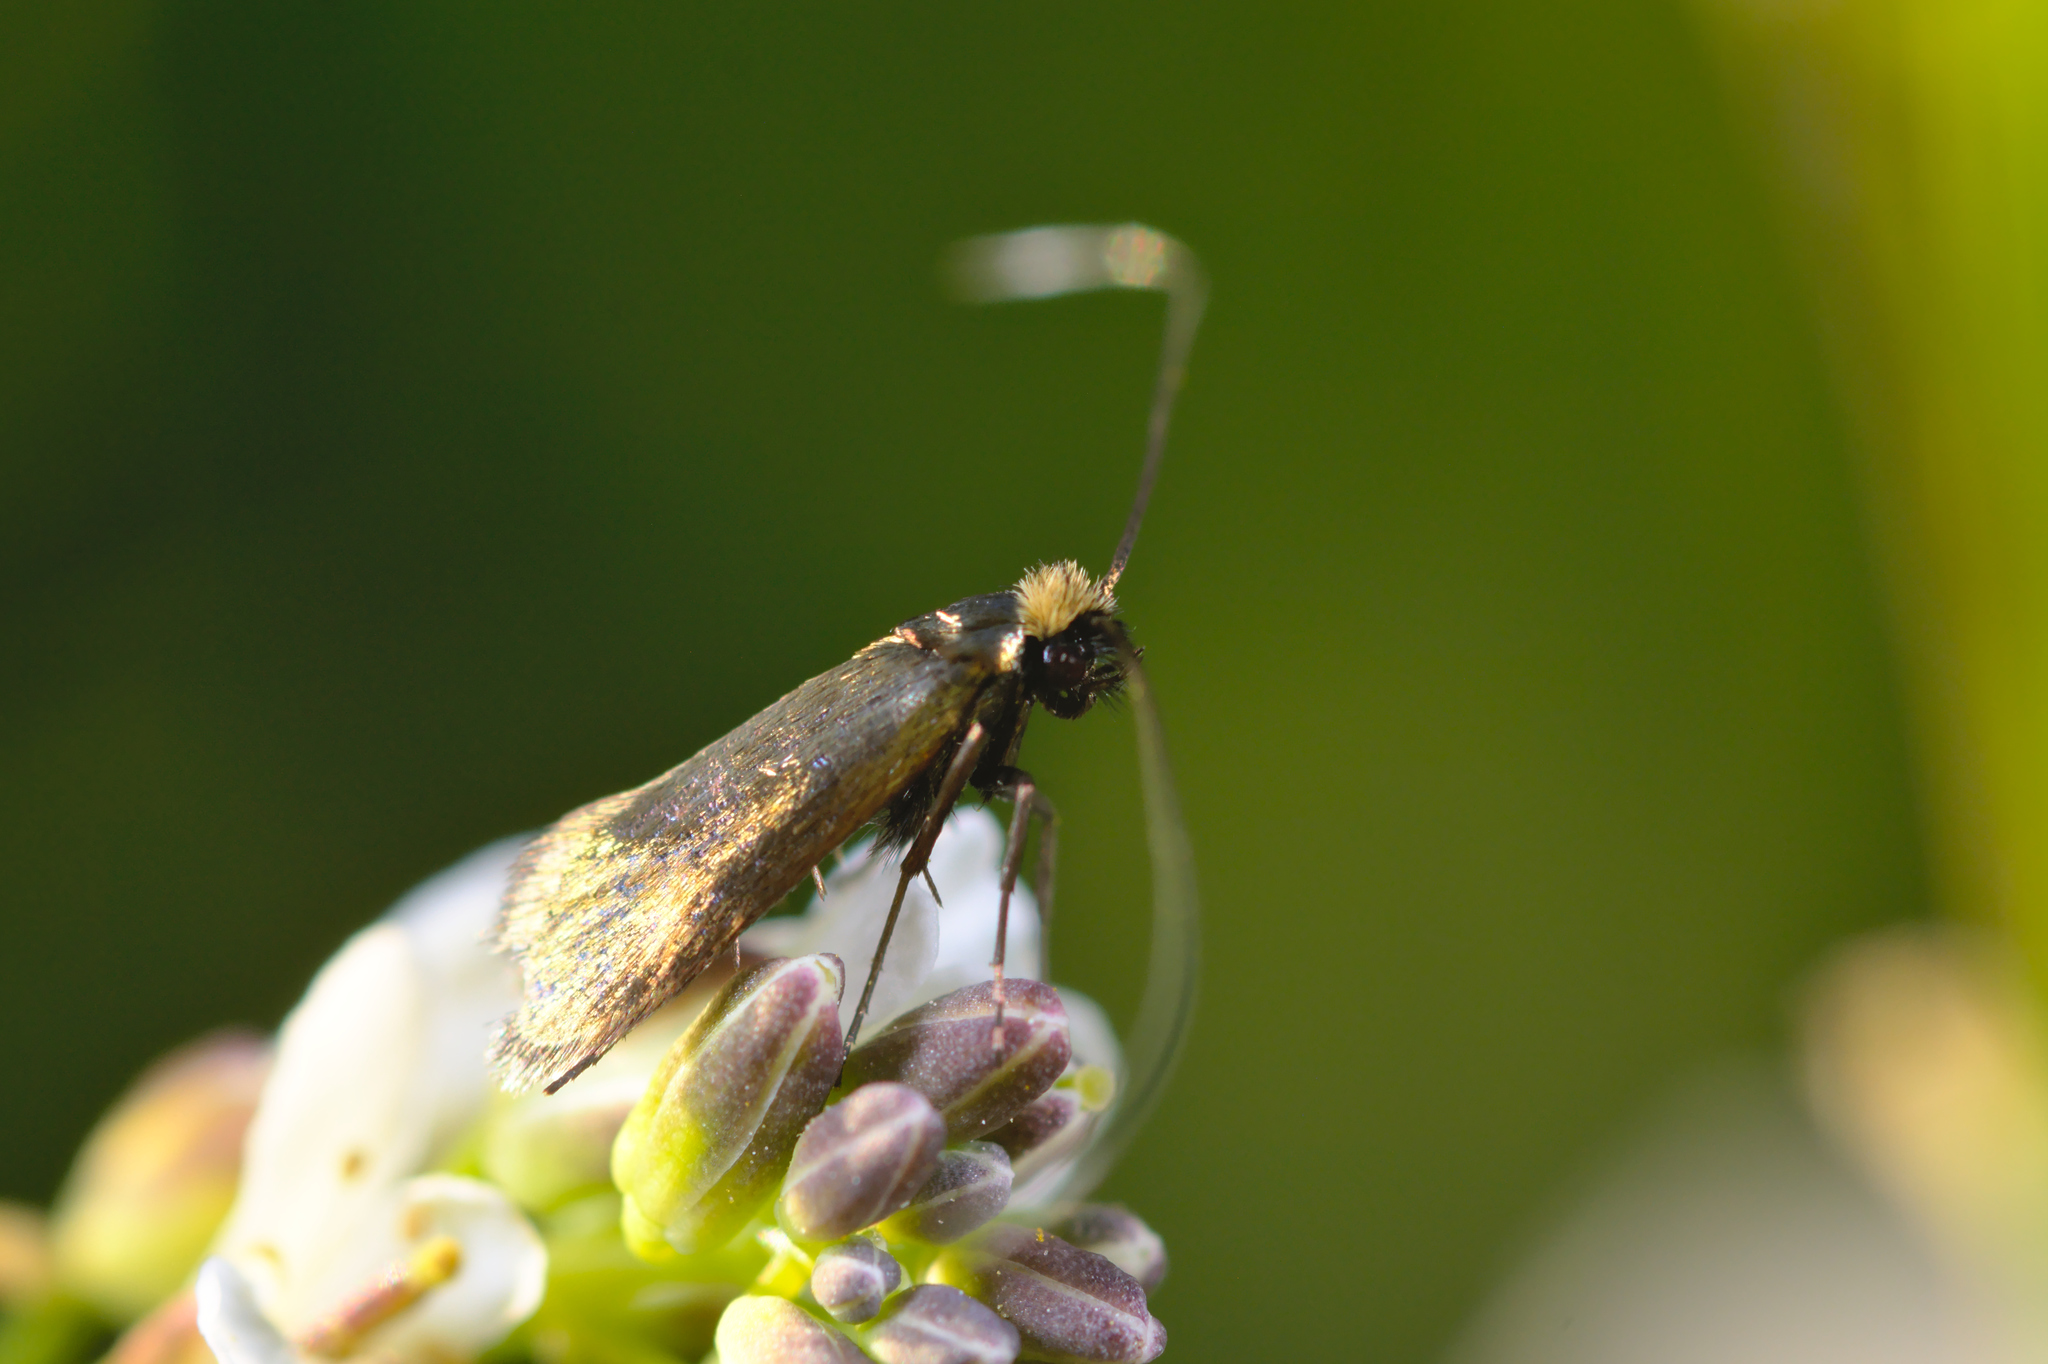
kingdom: Animalia
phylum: Arthropoda
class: Insecta
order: Lepidoptera
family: Adelidae
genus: Cauchas
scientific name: Cauchas rufimitrella
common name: Meadow long-horn
